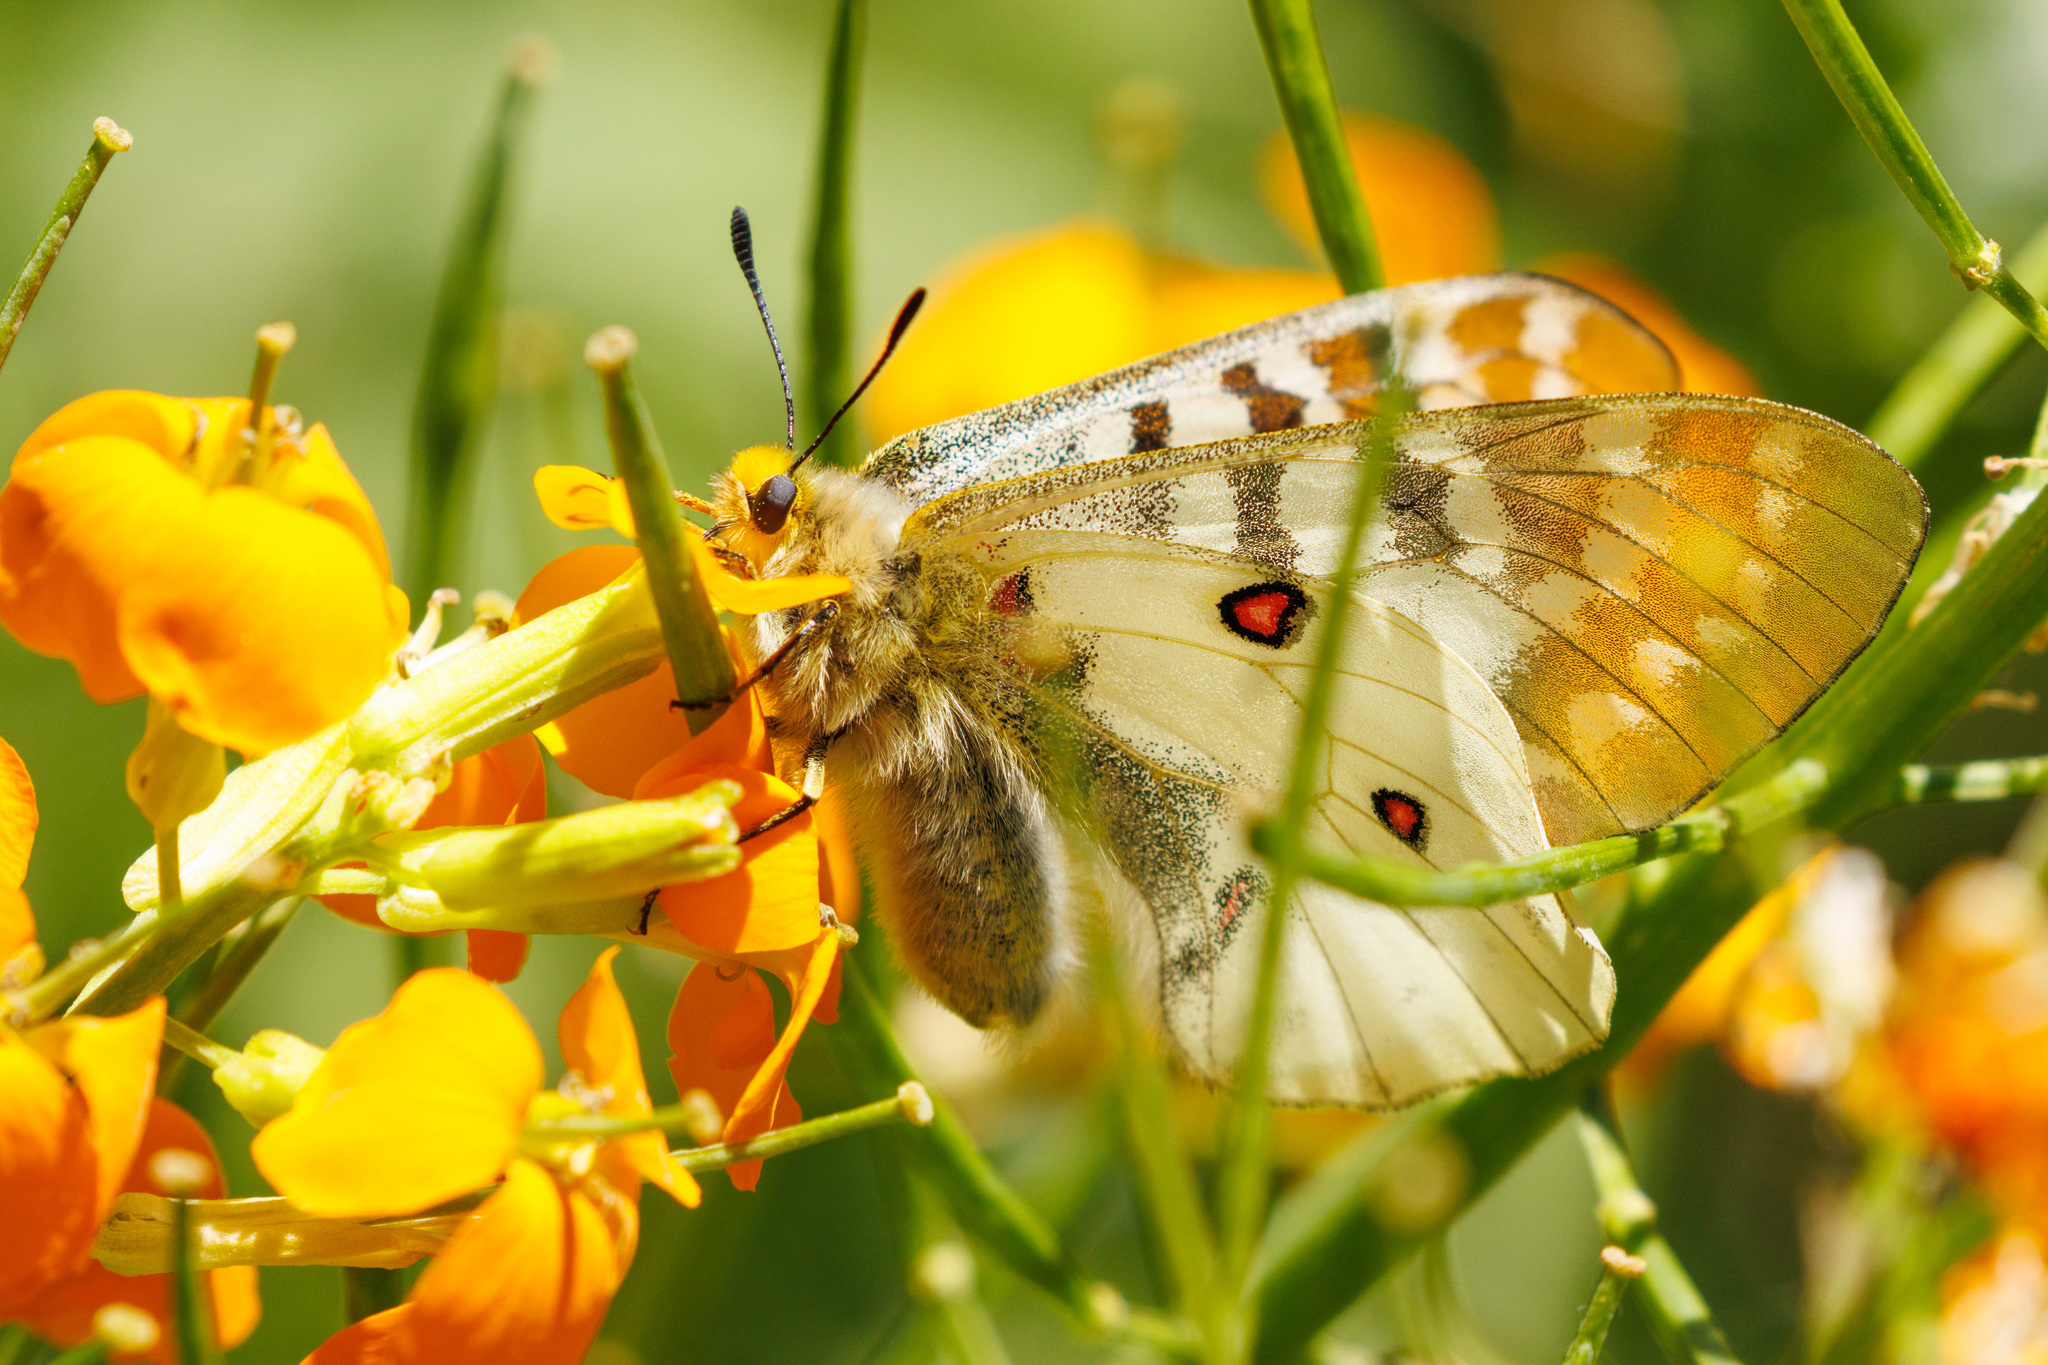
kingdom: Animalia
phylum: Arthropoda
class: Insecta
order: Lepidoptera
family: Papilionidae
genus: Parnassius
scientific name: Parnassius clodius
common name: American apollo
